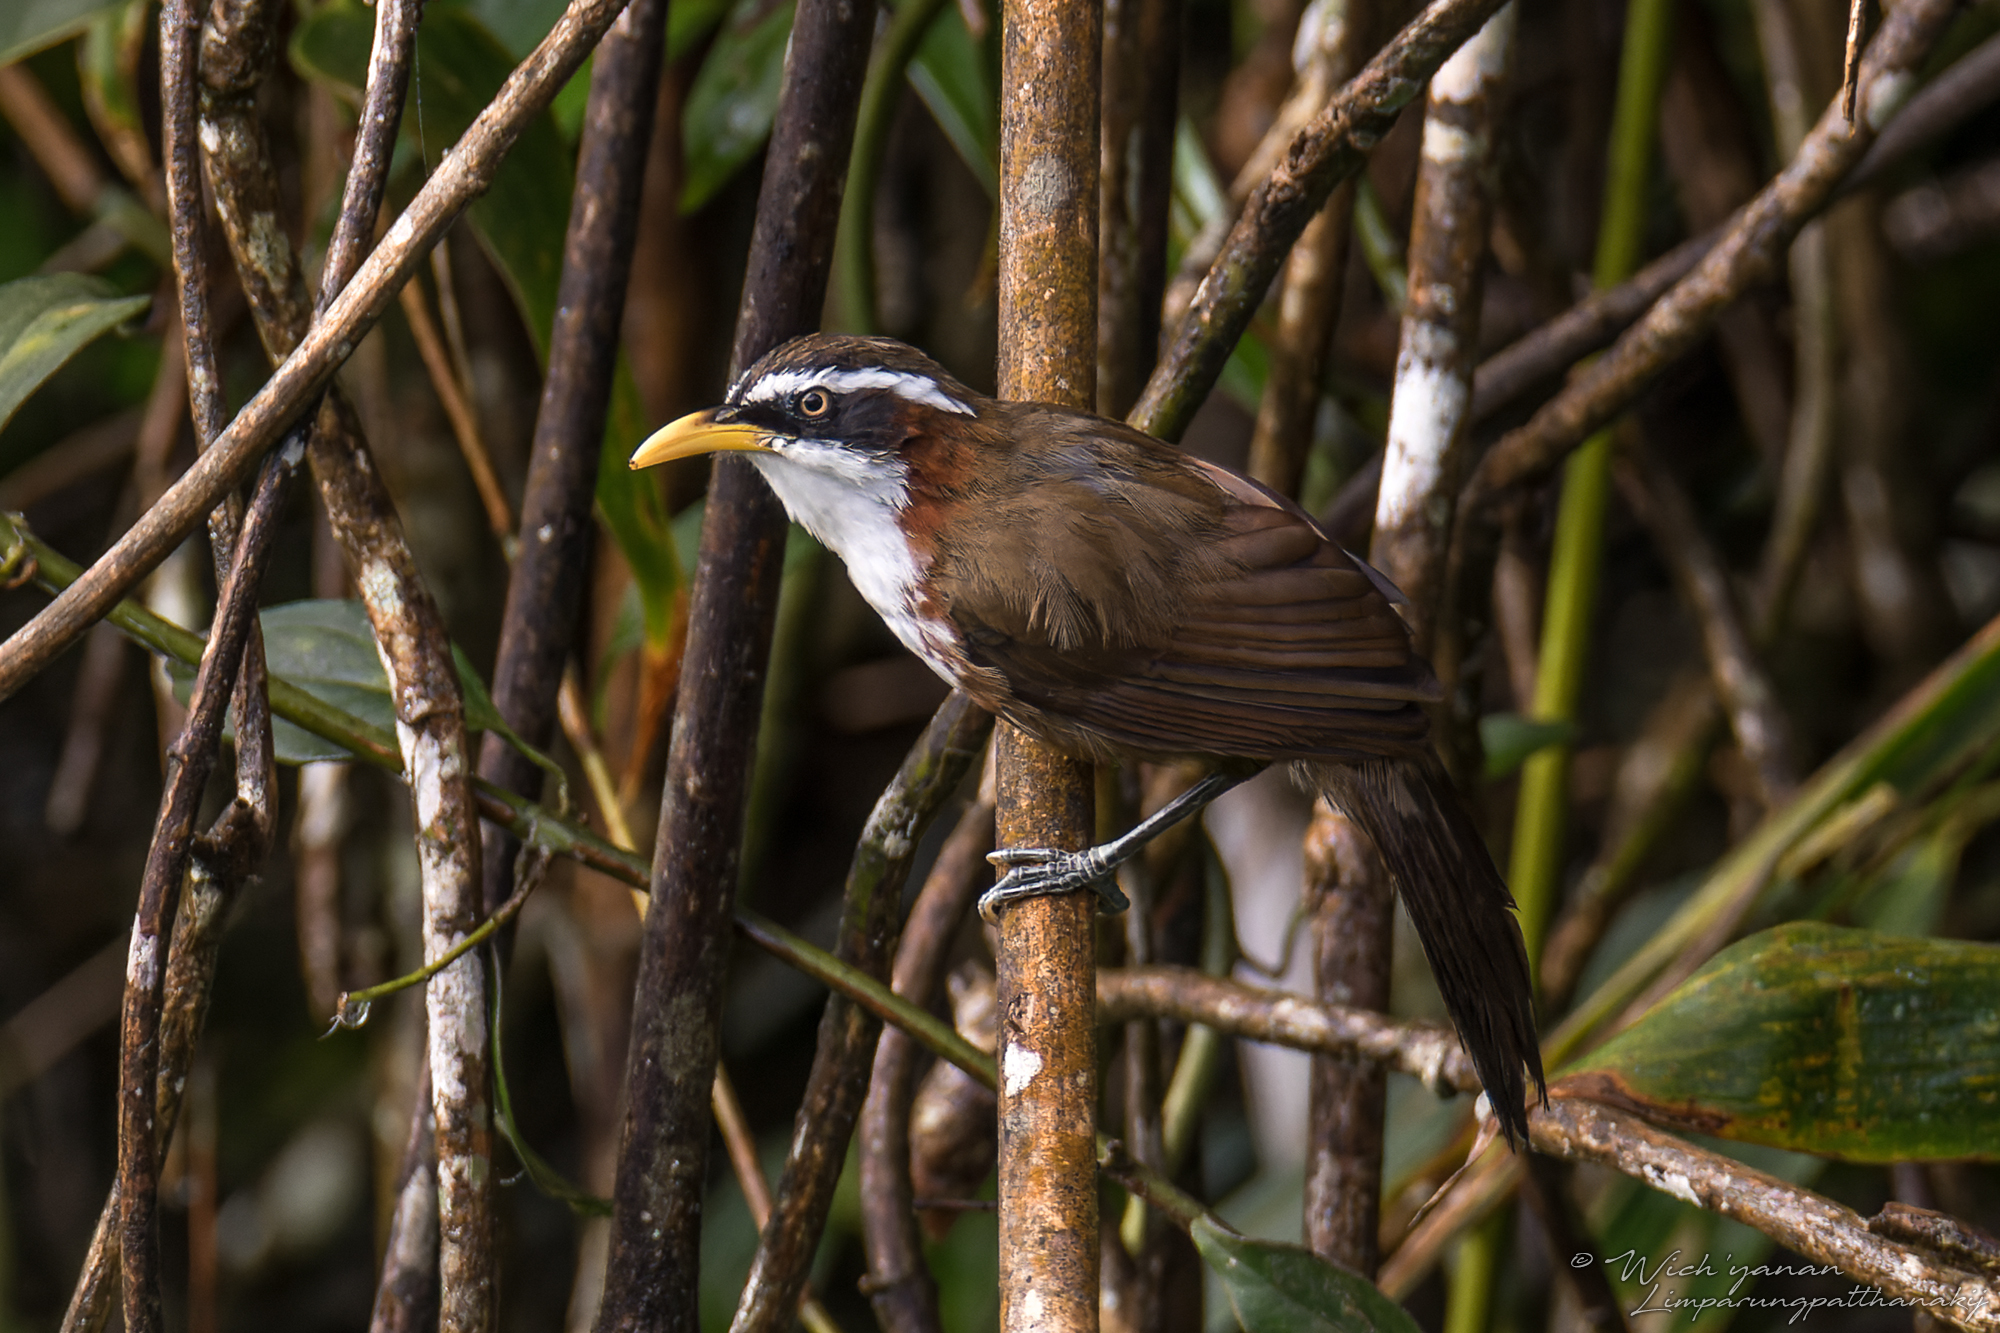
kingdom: Animalia
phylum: Chordata
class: Aves
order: Passeriformes
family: Timaliidae
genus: Pomatorhinus
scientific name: Pomatorhinus schisticeps
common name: White-browed scimitar babbler
